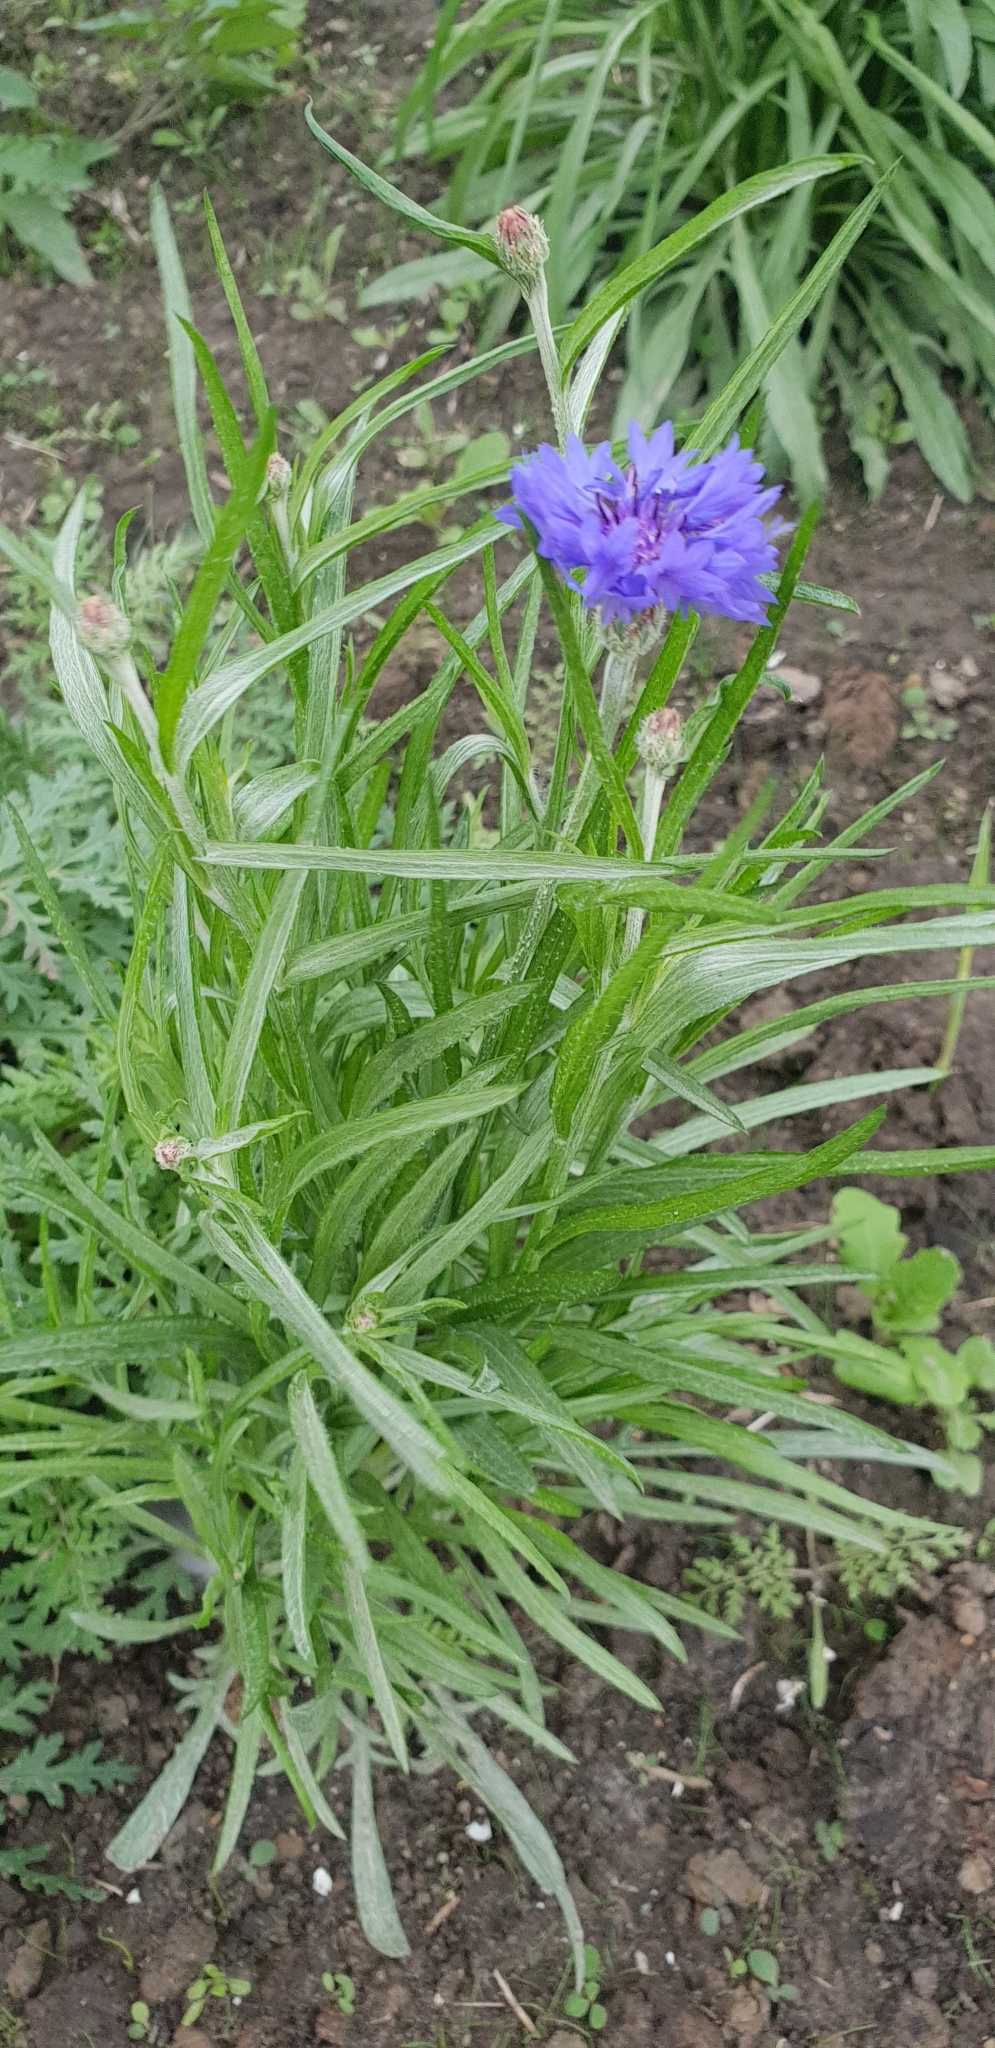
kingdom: Plantae
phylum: Tracheophyta
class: Magnoliopsida
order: Asterales
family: Asteraceae
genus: Centaurea
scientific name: Centaurea cyanus
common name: Cornflower
